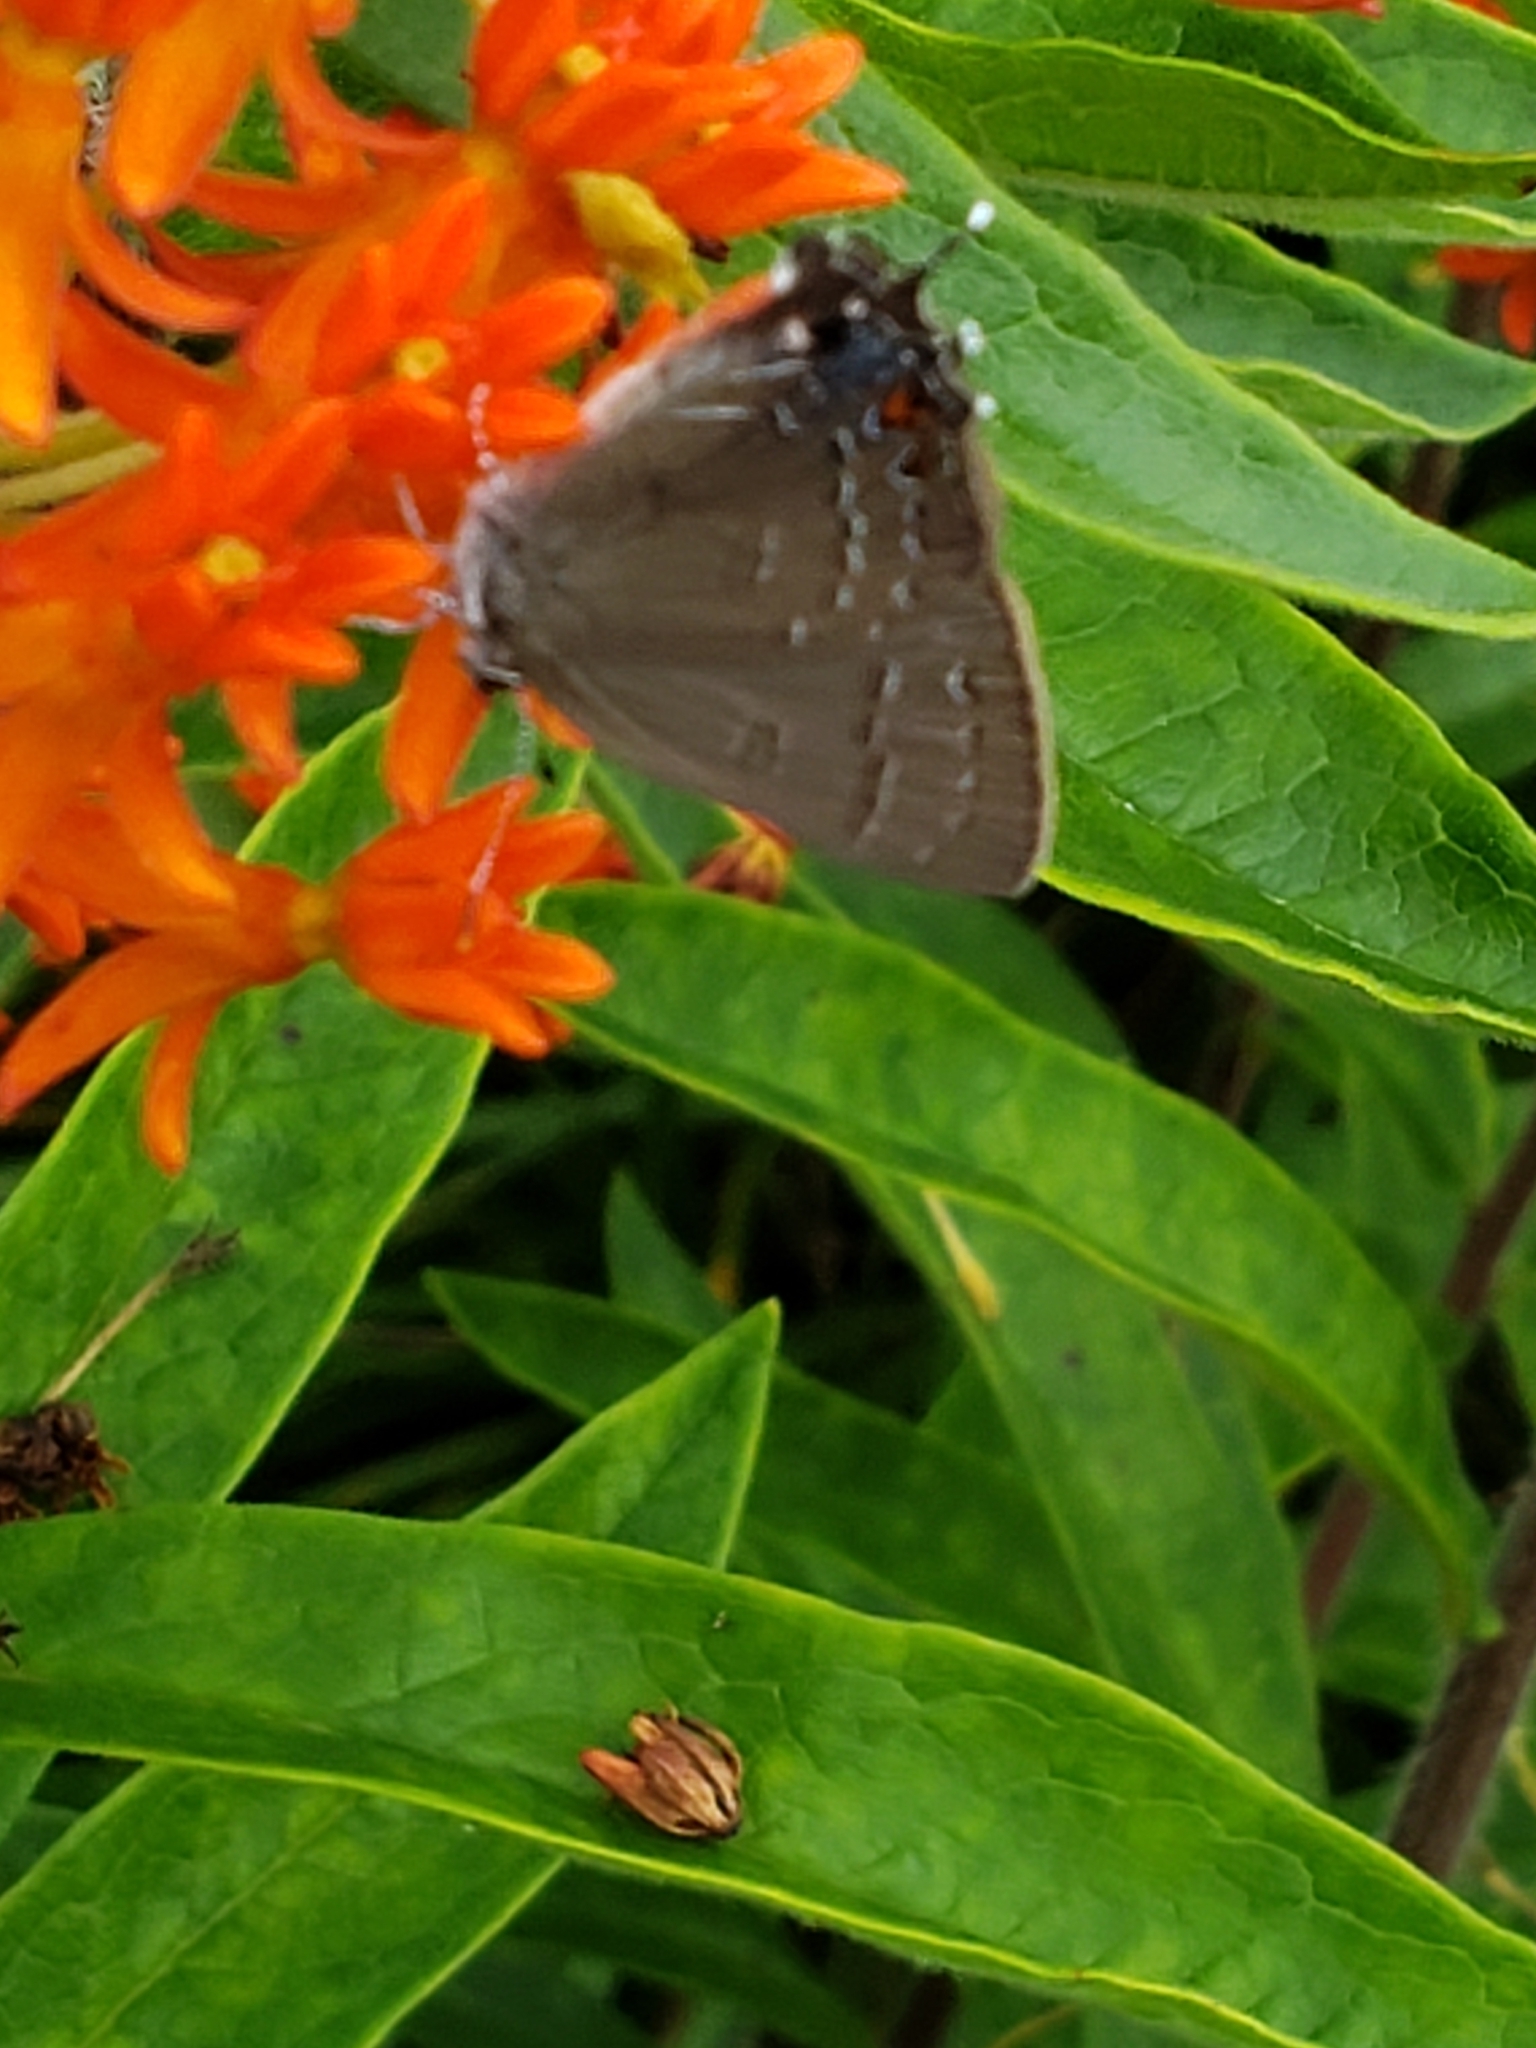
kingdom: Animalia
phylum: Arthropoda
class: Insecta
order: Lepidoptera
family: Lycaenidae
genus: Satyrium
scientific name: Satyrium calanus
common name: Banded hairstreak
